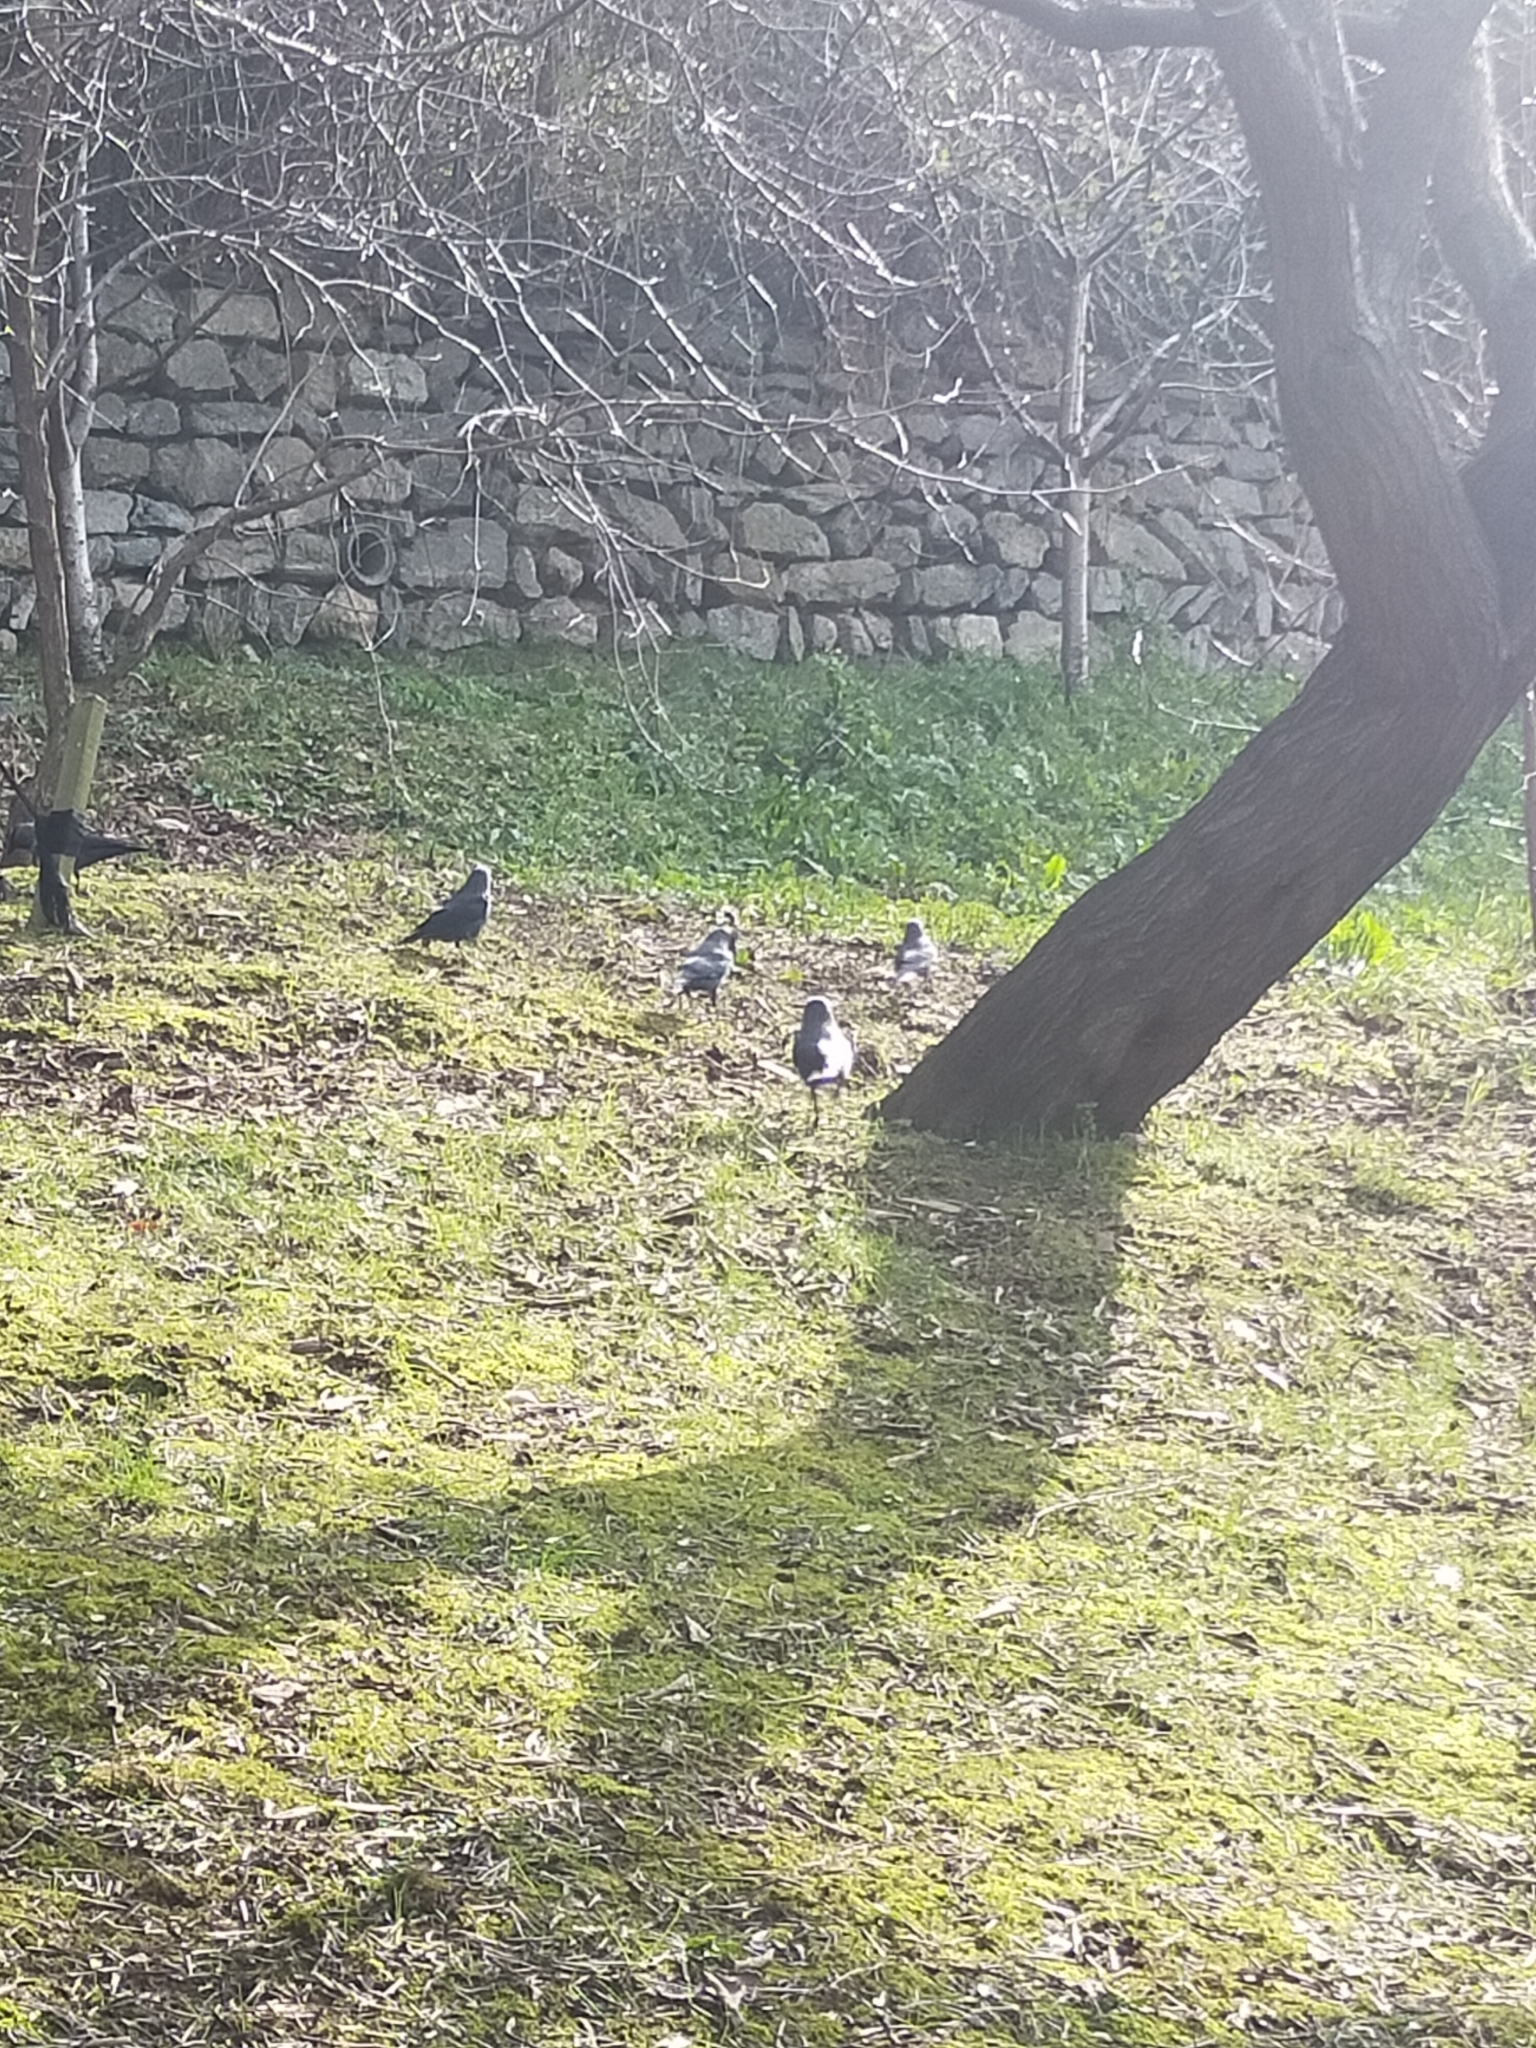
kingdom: Animalia
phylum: Chordata
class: Aves
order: Passeriformes
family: Corvidae
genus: Coloeus
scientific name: Coloeus monedula
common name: Western jackdaw
